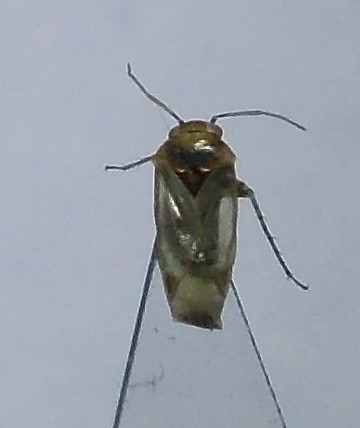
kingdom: Animalia
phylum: Arthropoda
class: Insecta
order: Hemiptera
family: Miridae
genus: Campylomma
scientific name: Campylomma verbasci
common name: Mullein bug
